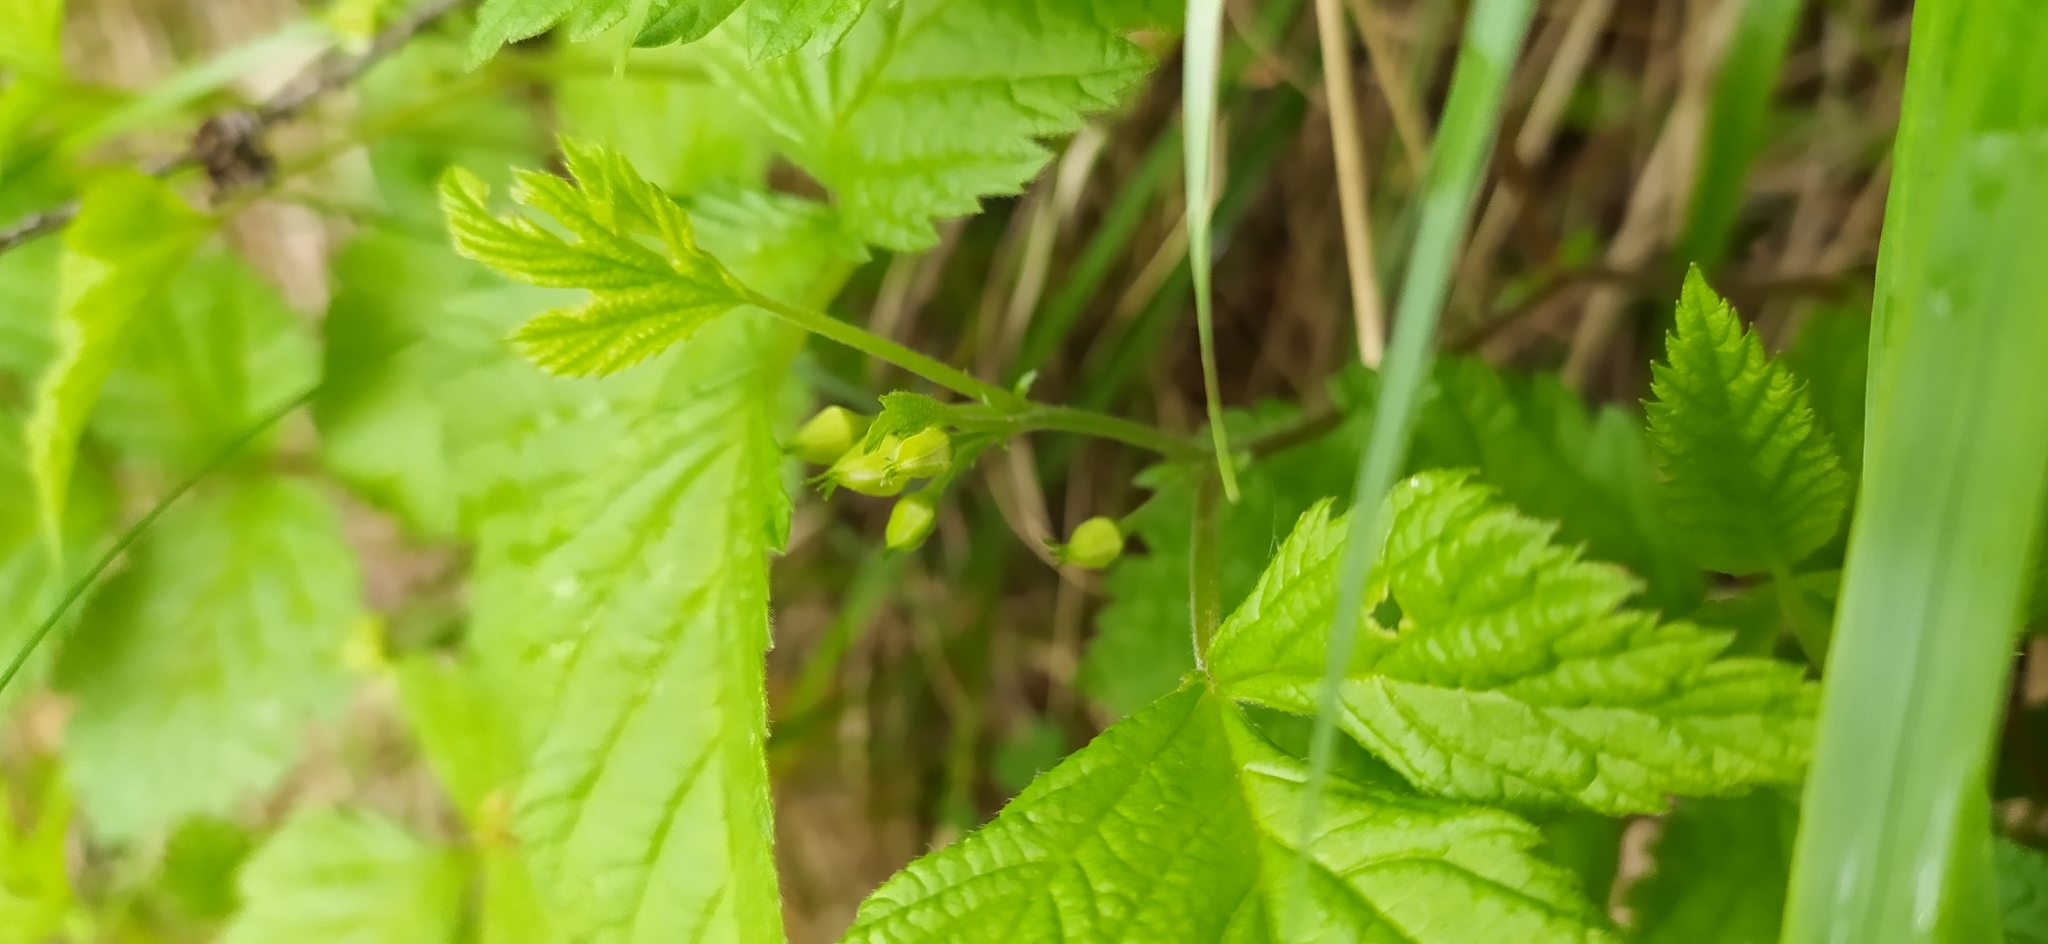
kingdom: Plantae
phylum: Tracheophyta
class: Magnoliopsida
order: Rosales
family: Rosaceae
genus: Rubus
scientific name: Rubus saxatilis
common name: Stone bramble
